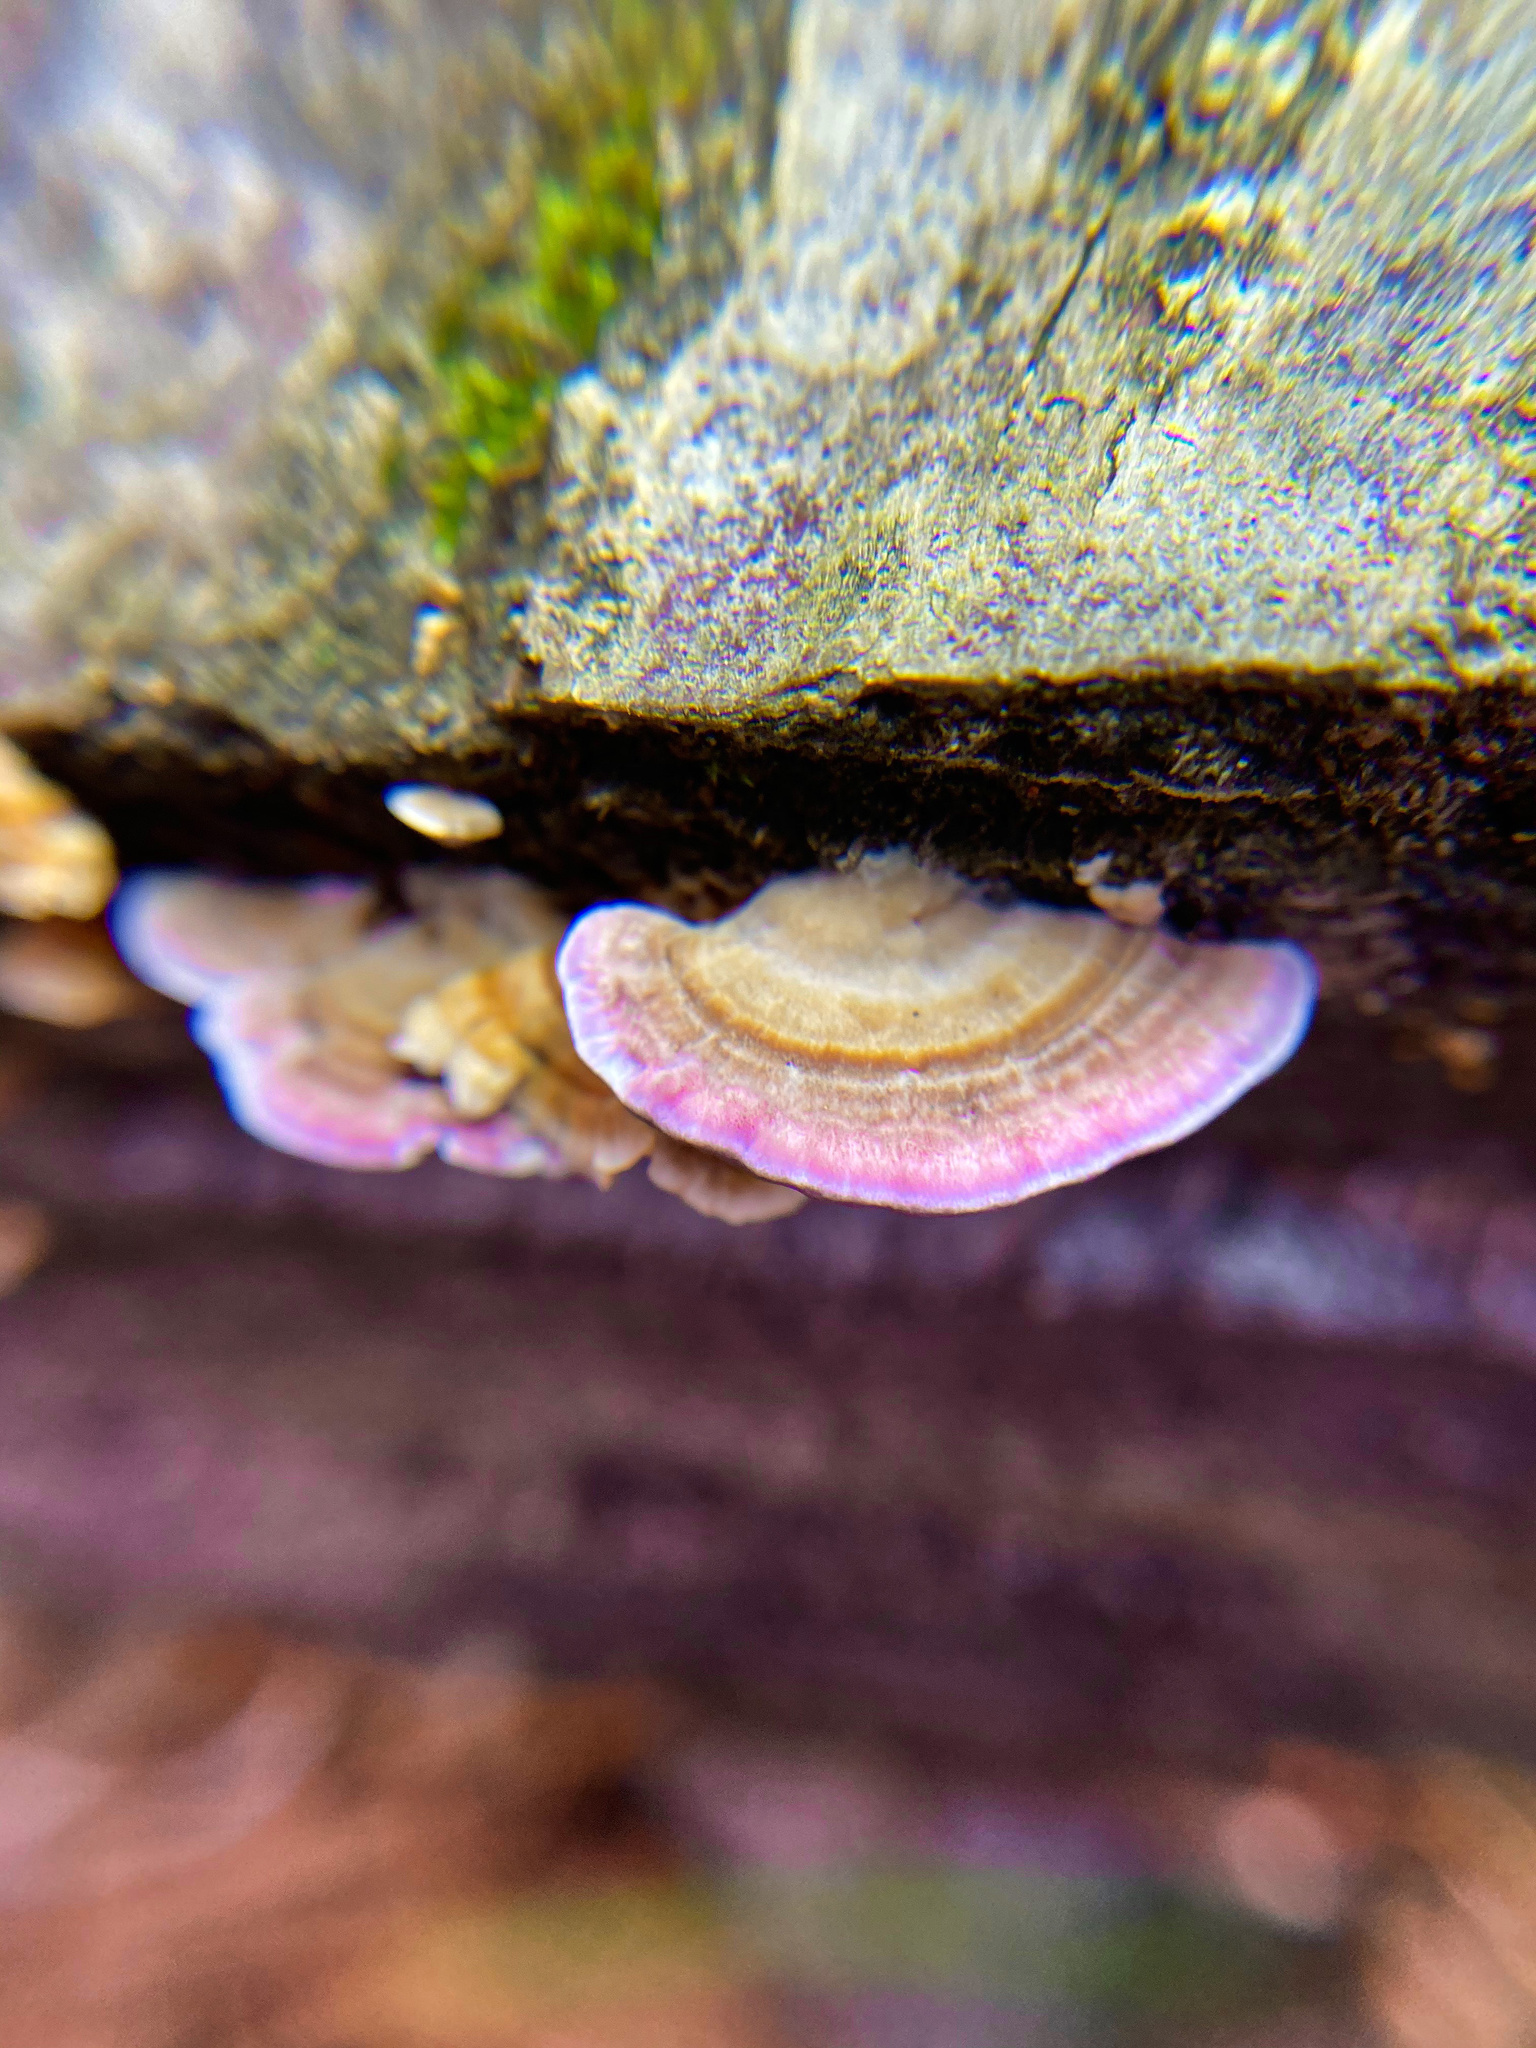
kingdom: Fungi
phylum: Basidiomycota
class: Agaricomycetes
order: Hymenochaetales
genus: Trichaptum
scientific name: Trichaptum biforme
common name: Violet-toothed polypore
